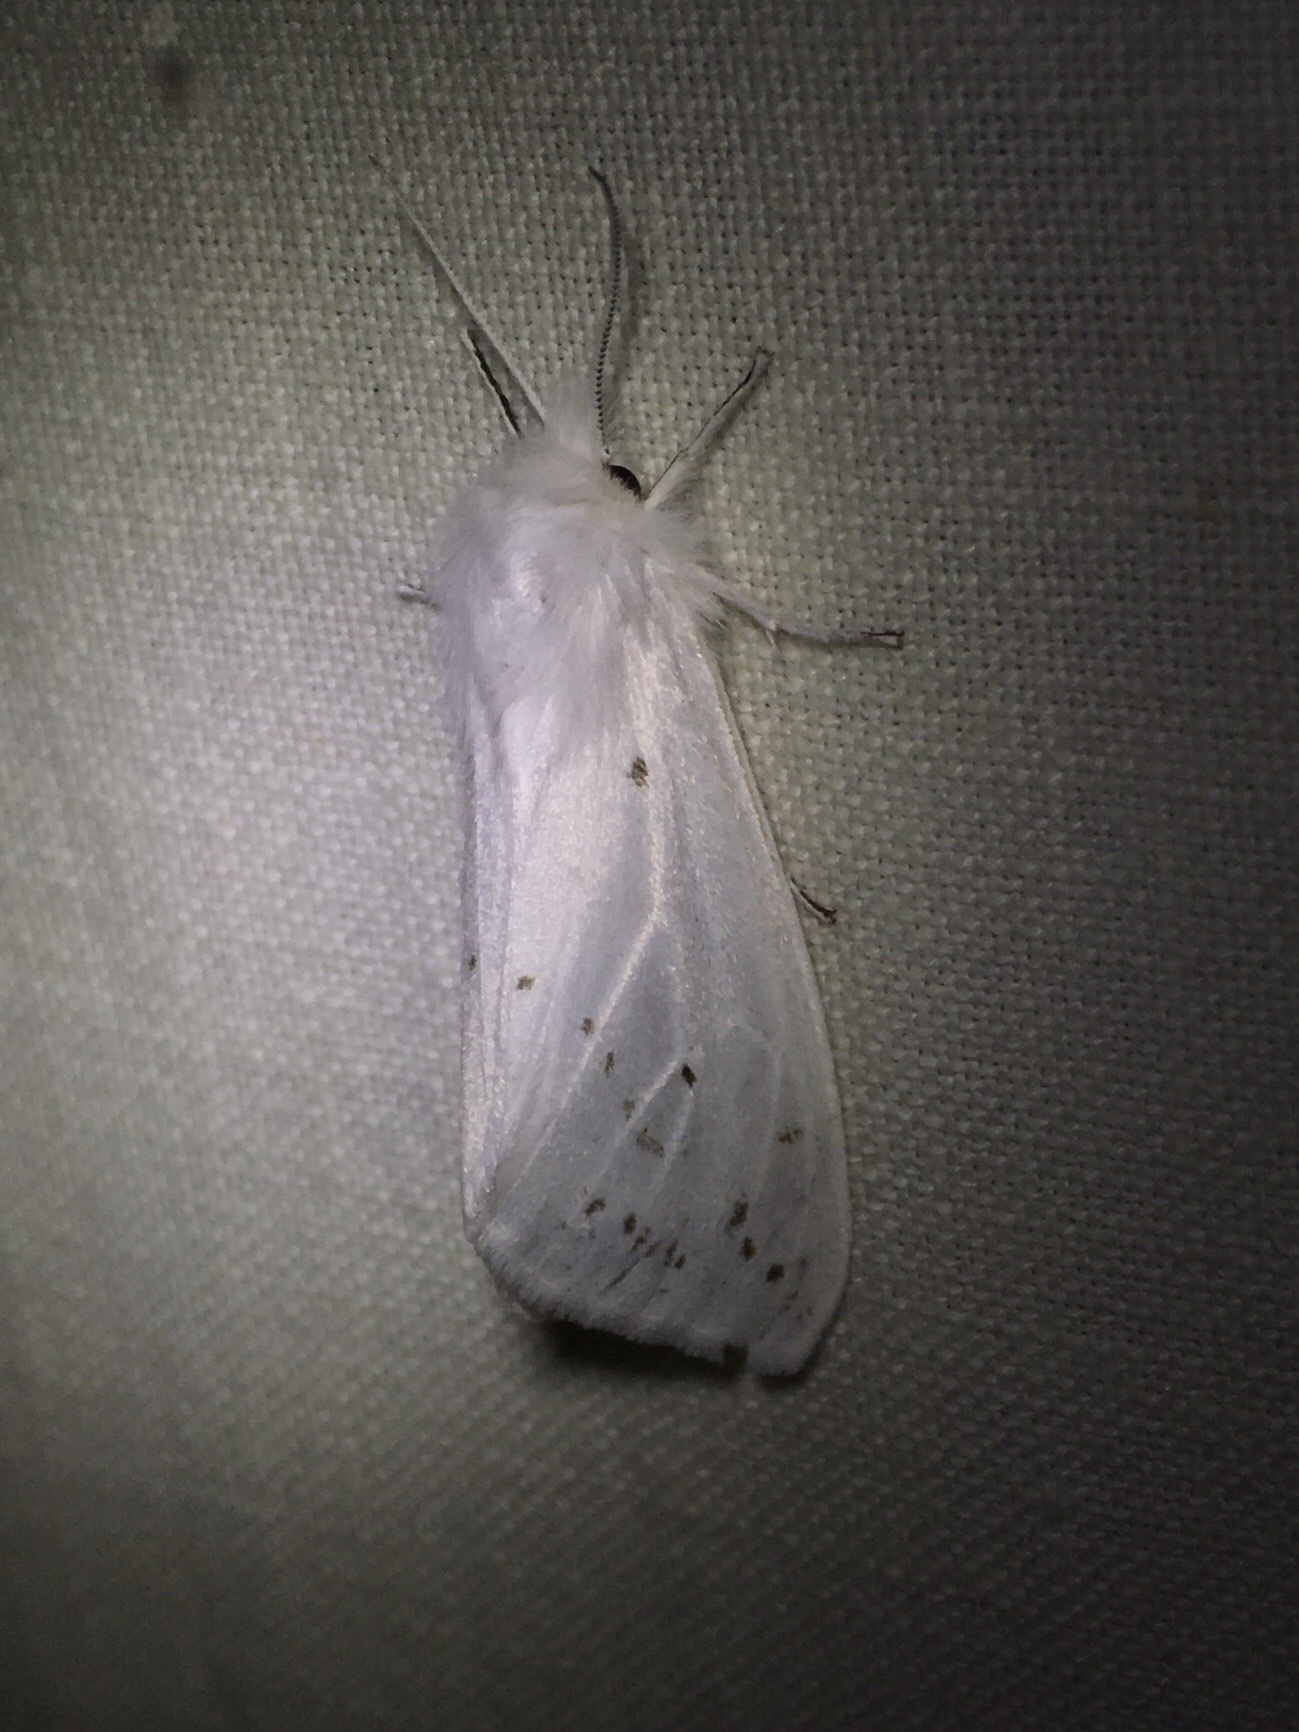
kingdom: Animalia
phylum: Arthropoda
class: Insecta
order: Lepidoptera
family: Erebidae
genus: Spilosoma
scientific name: Spilosoma congrua
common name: Agreeable tiger moth
